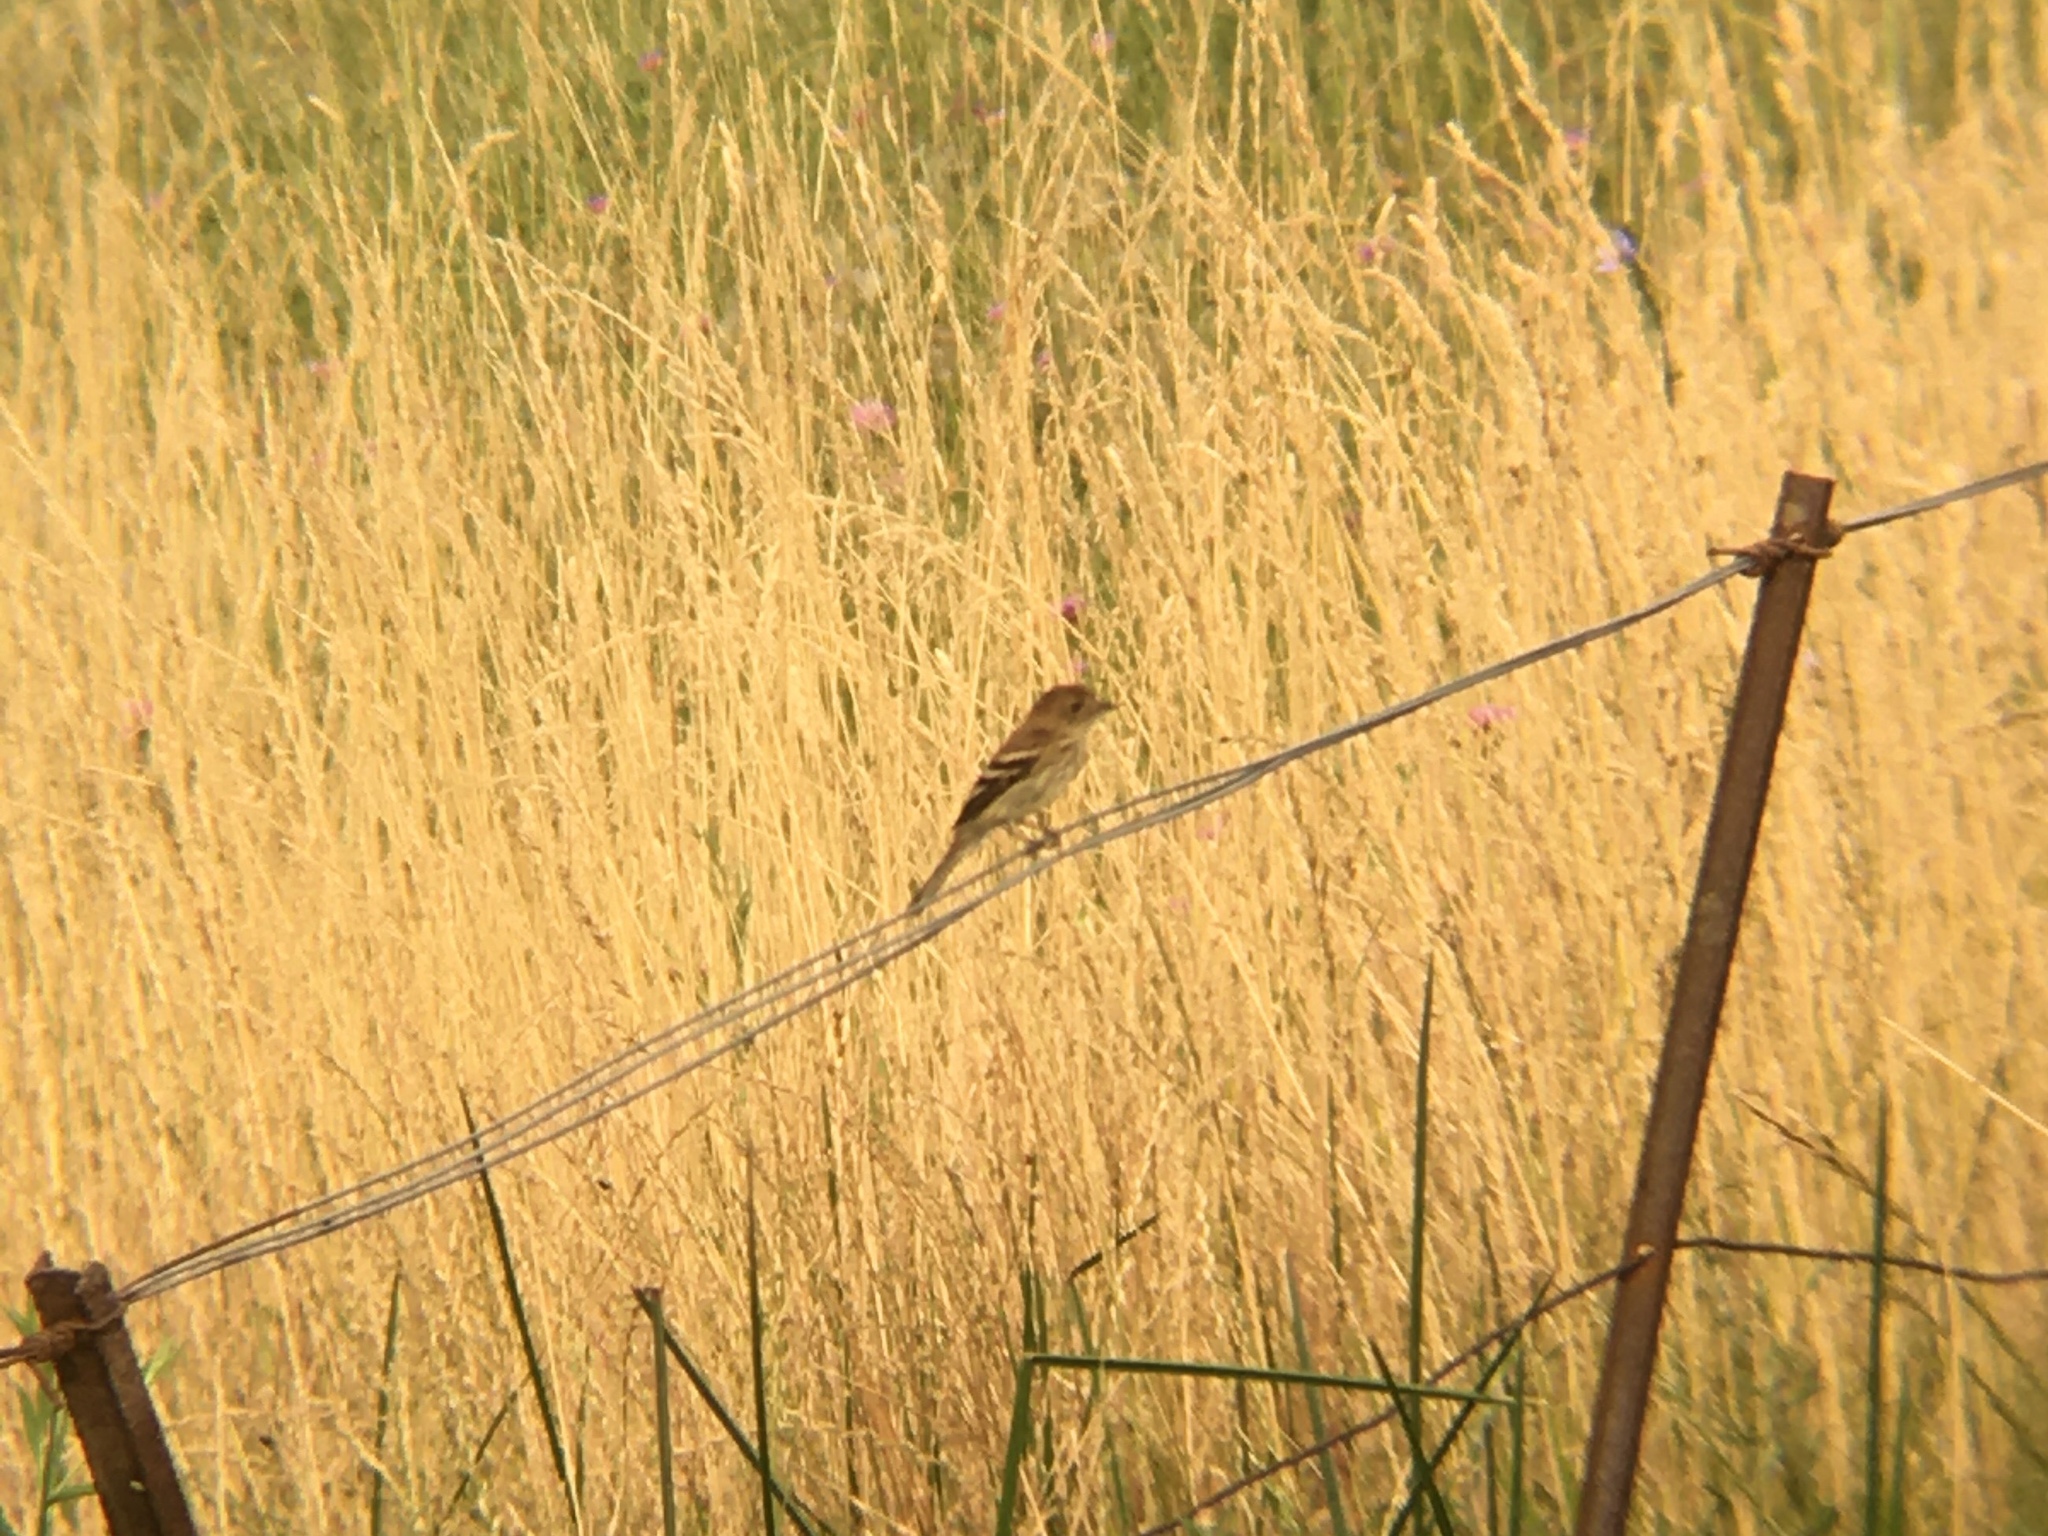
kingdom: Animalia
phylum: Chordata
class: Aves
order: Passeriformes
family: Tyrannidae
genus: Myiophobus
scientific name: Myiophobus fasciatus
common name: Bran-colored flycatcher
